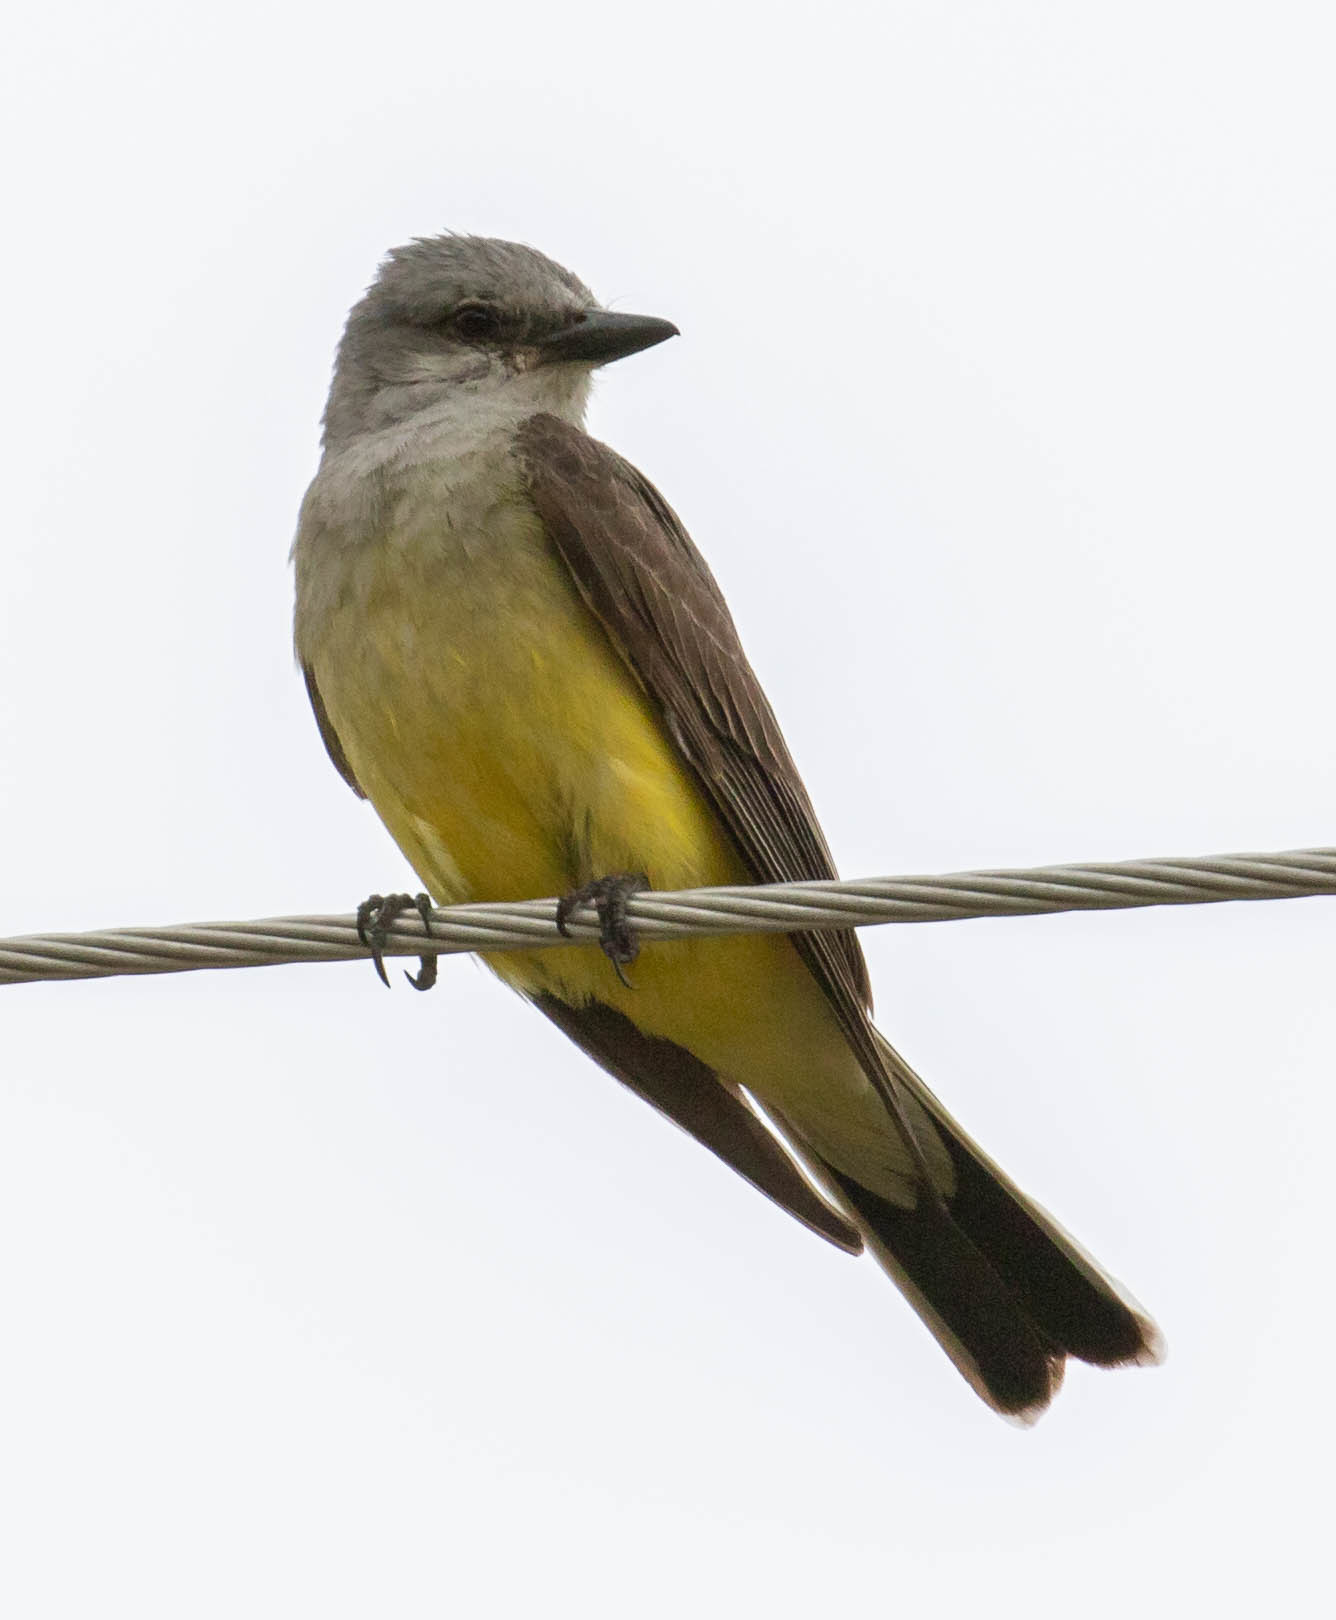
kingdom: Animalia
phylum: Chordata
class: Aves
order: Passeriformes
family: Tyrannidae
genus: Tyrannus
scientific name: Tyrannus verticalis
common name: Western kingbird
